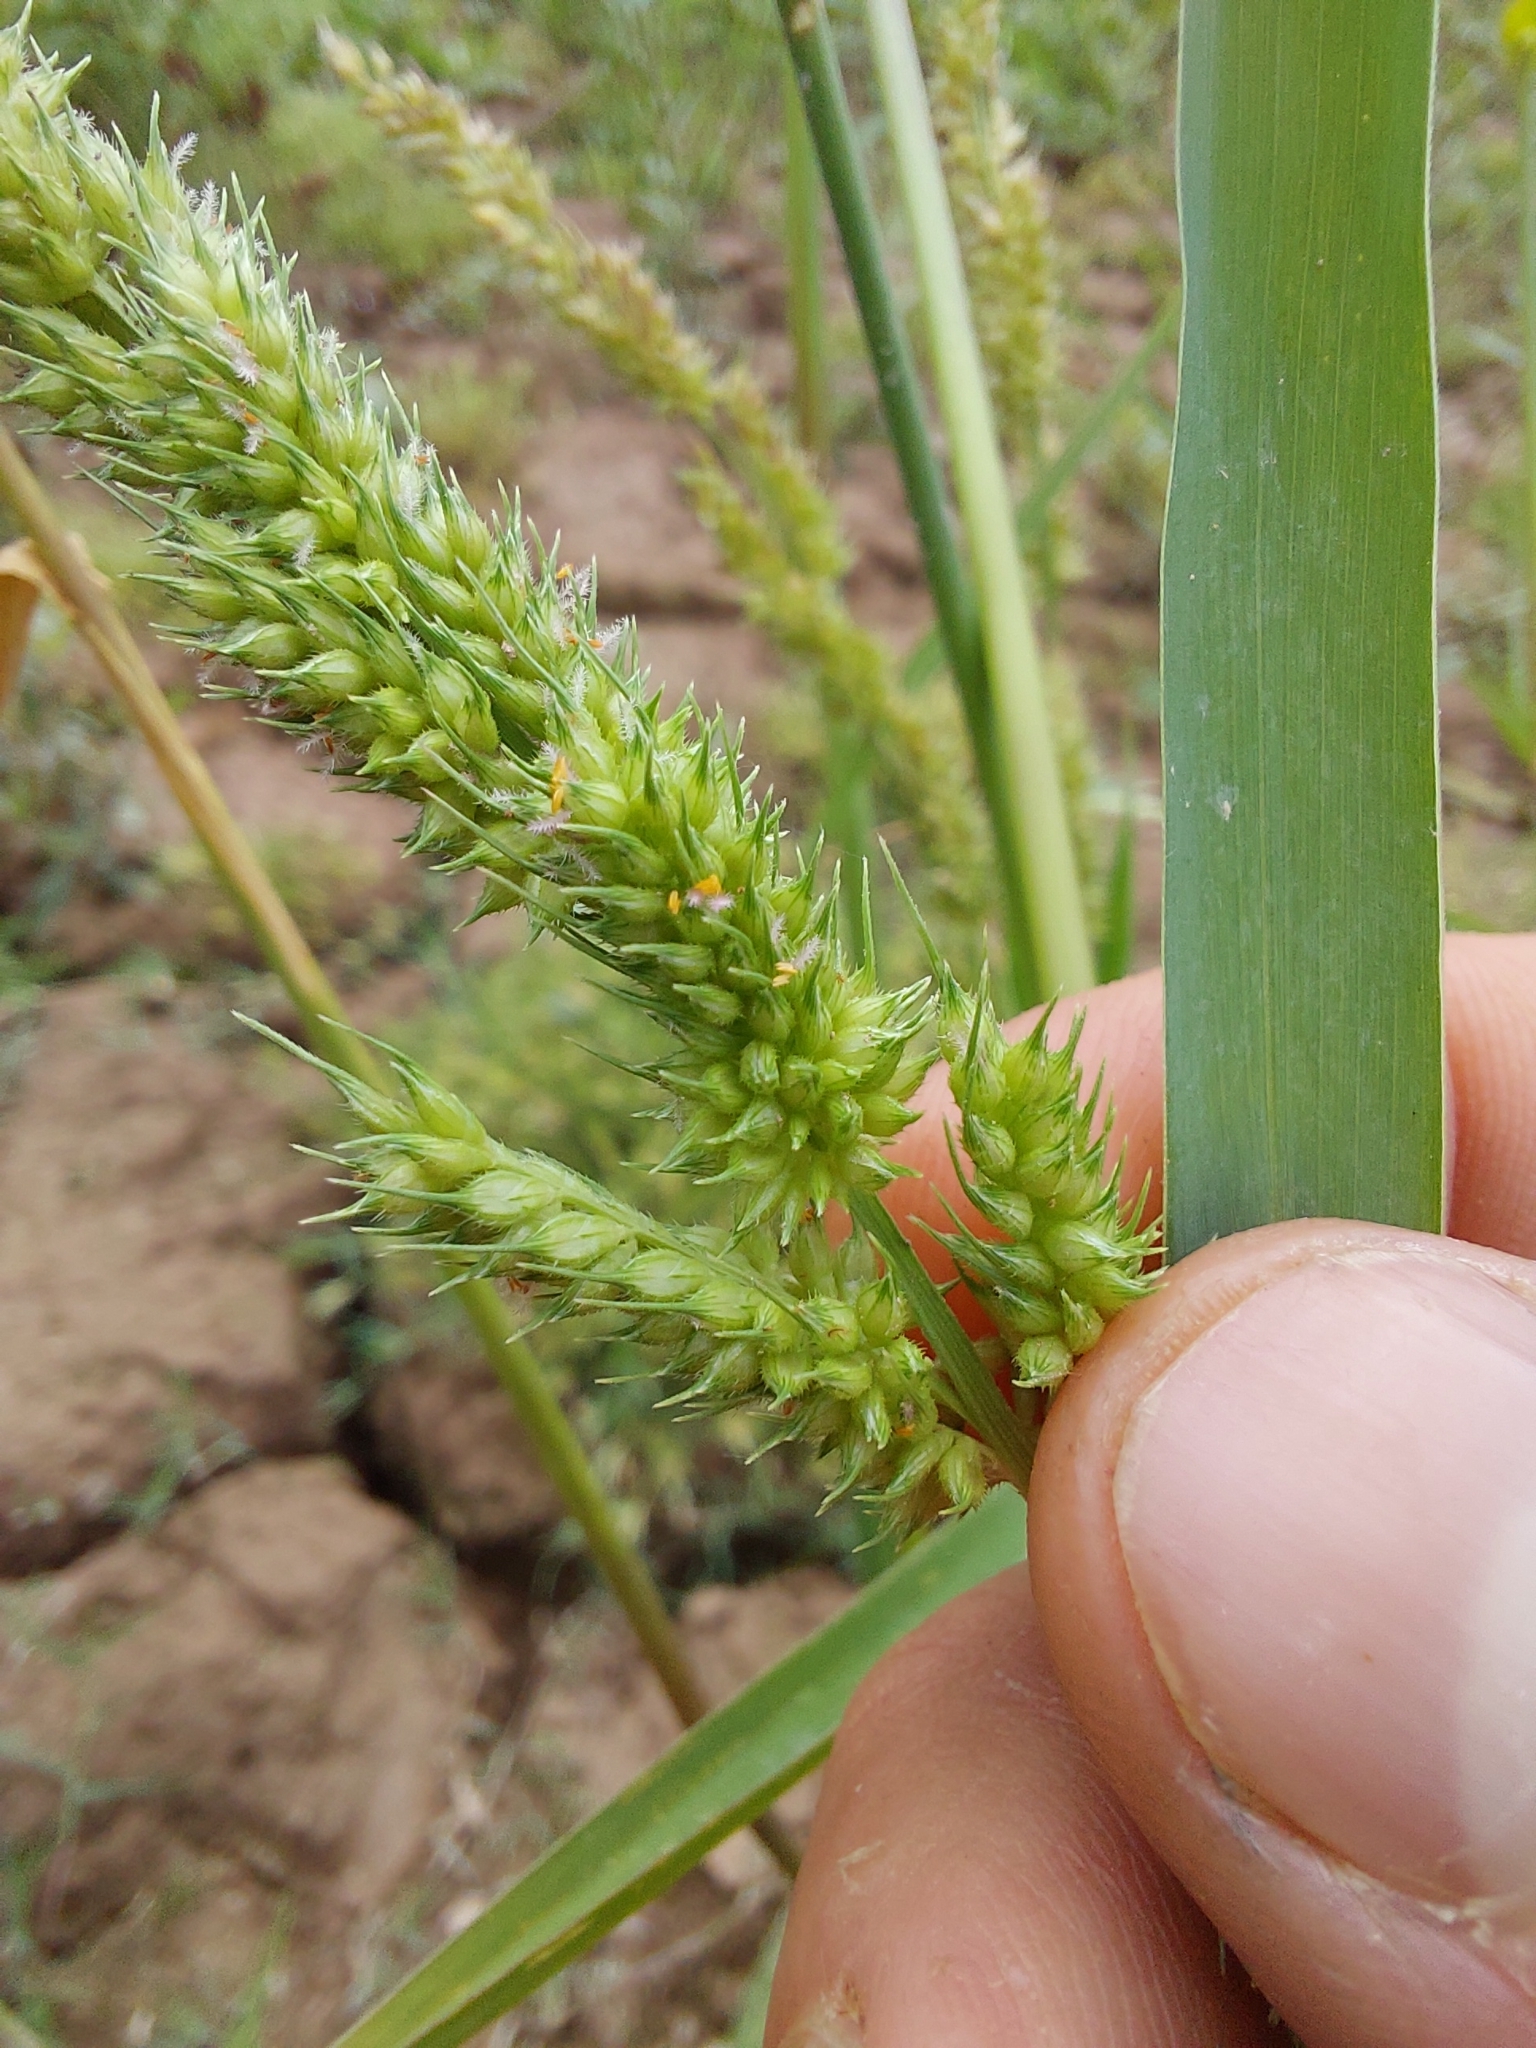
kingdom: Plantae
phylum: Tracheophyta
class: Liliopsida
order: Poales
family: Poaceae
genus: Echinochloa
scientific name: Echinochloa crus-pavonis
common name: Gulf cockspur grass
